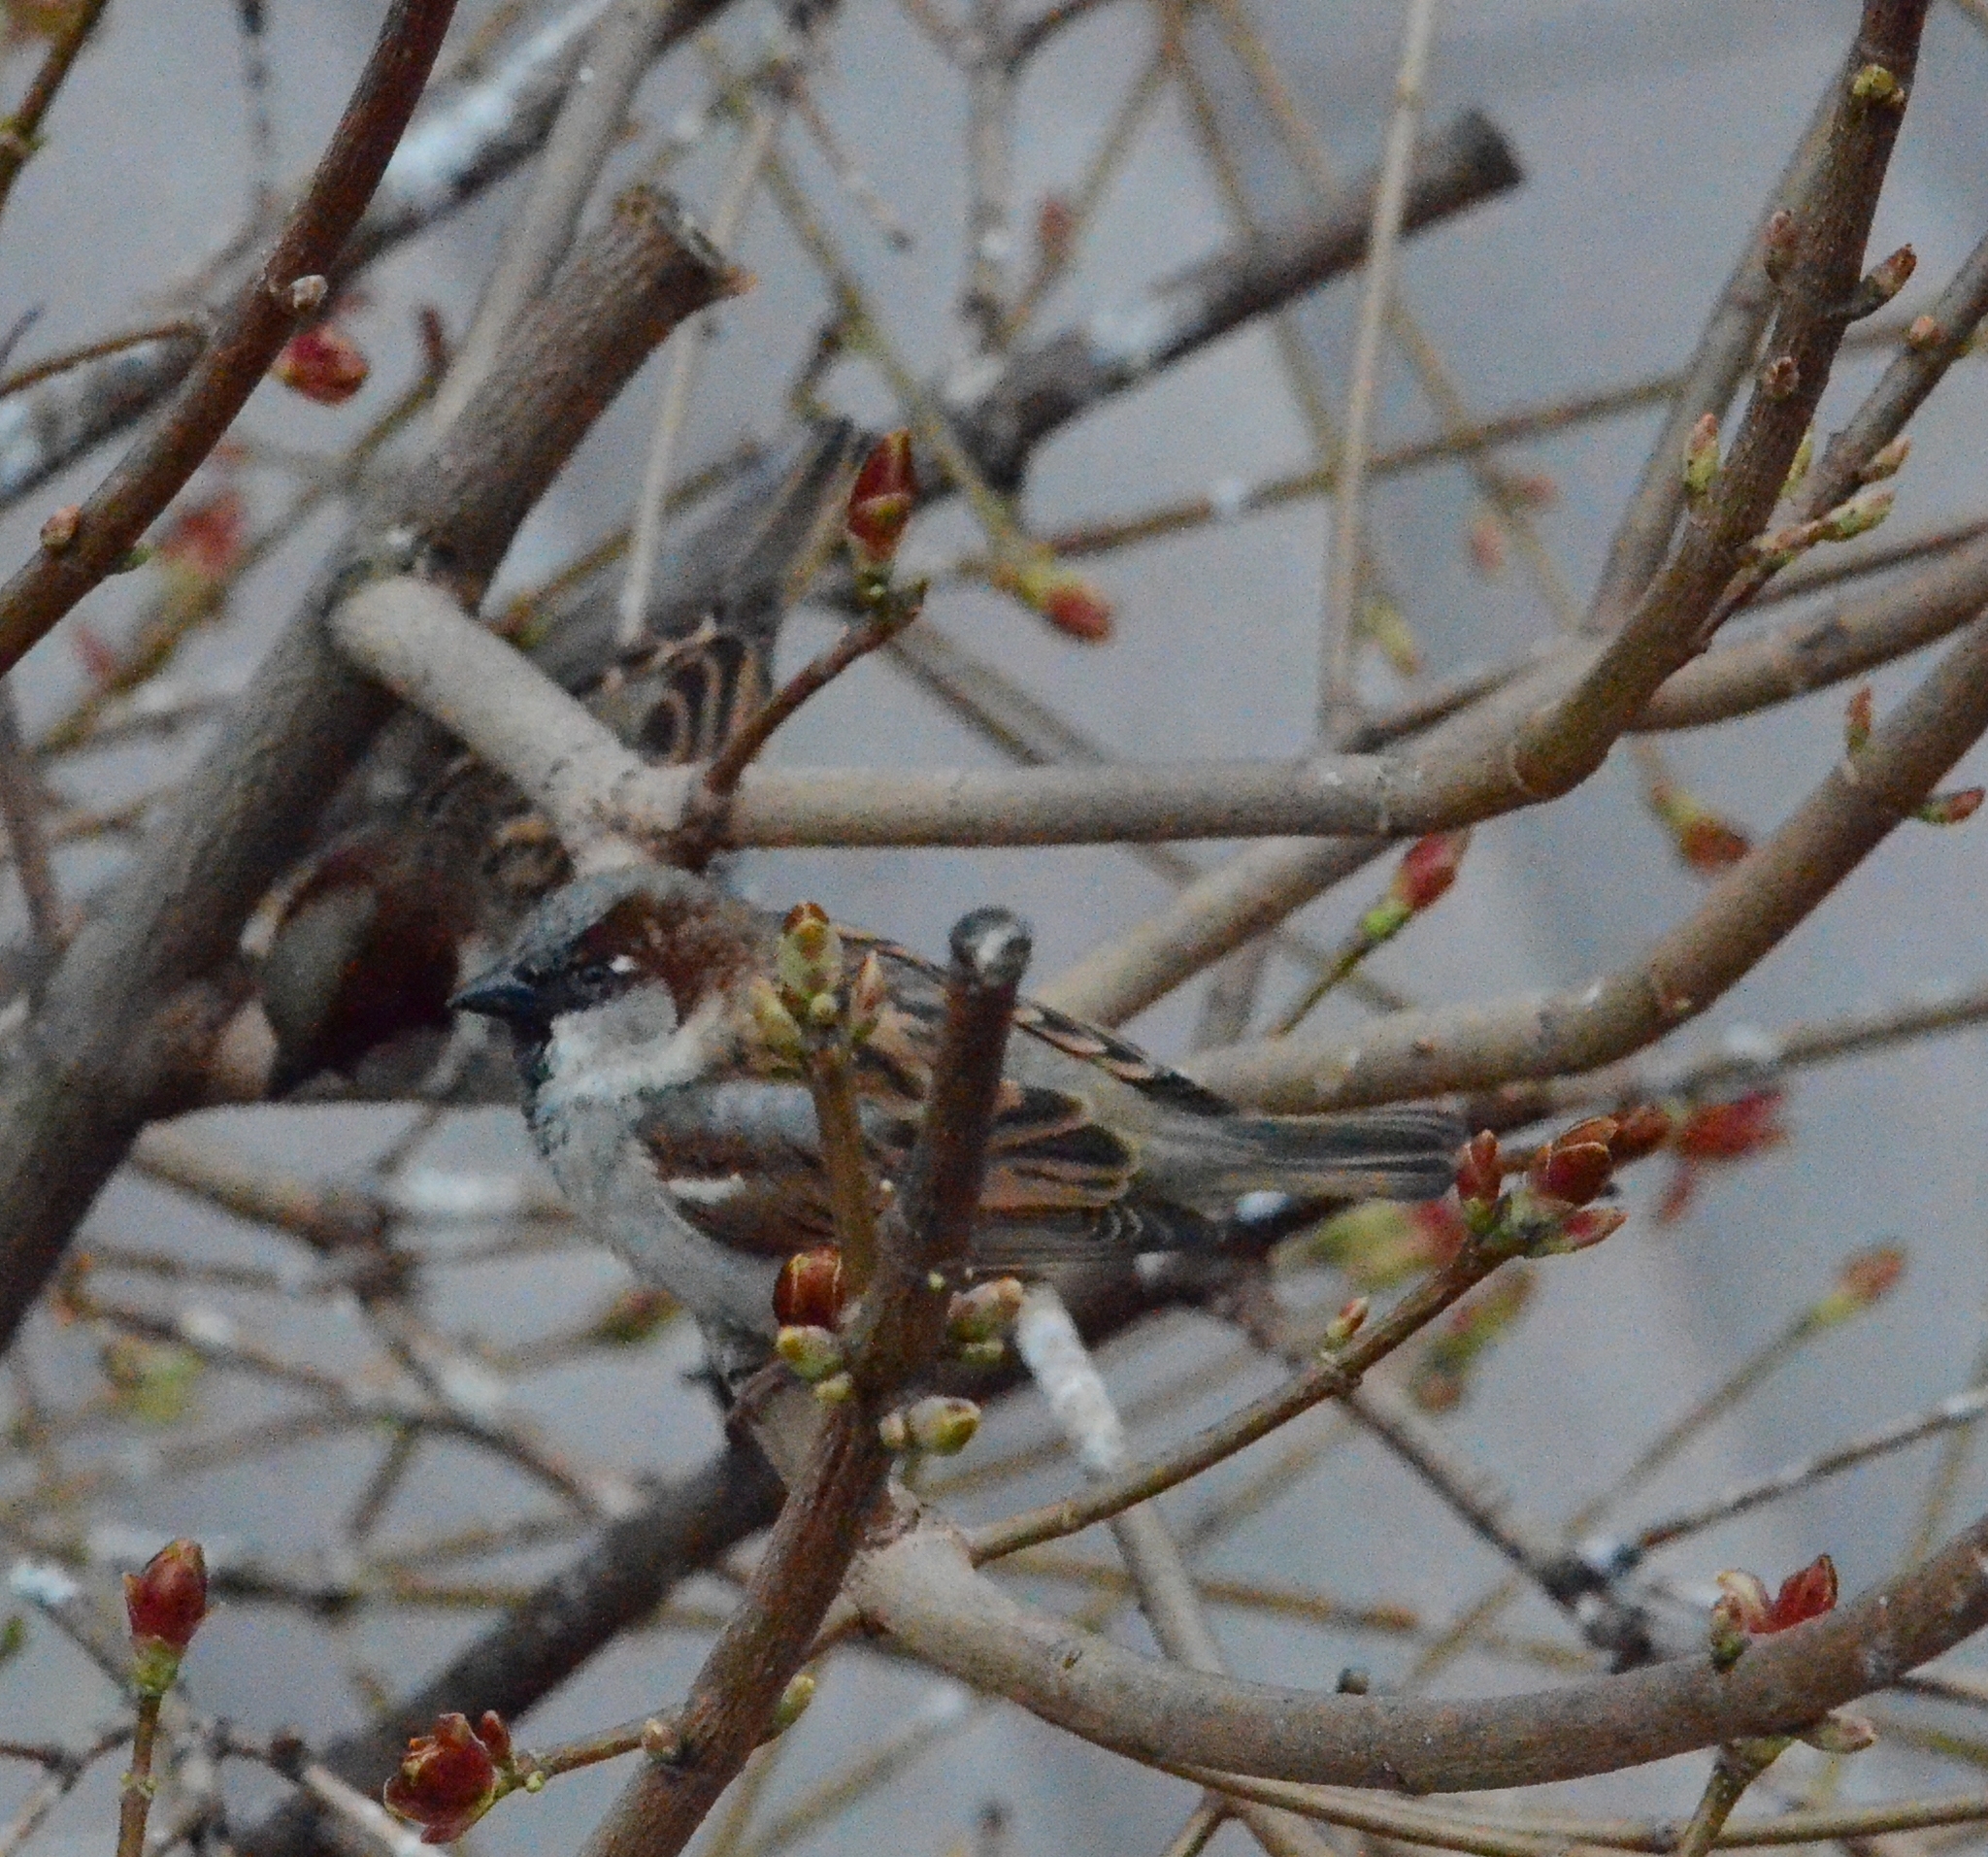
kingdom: Animalia
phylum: Chordata
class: Aves
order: Passeriformes
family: Passeridae
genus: Passer
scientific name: Passer domesticus
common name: House sparrow
